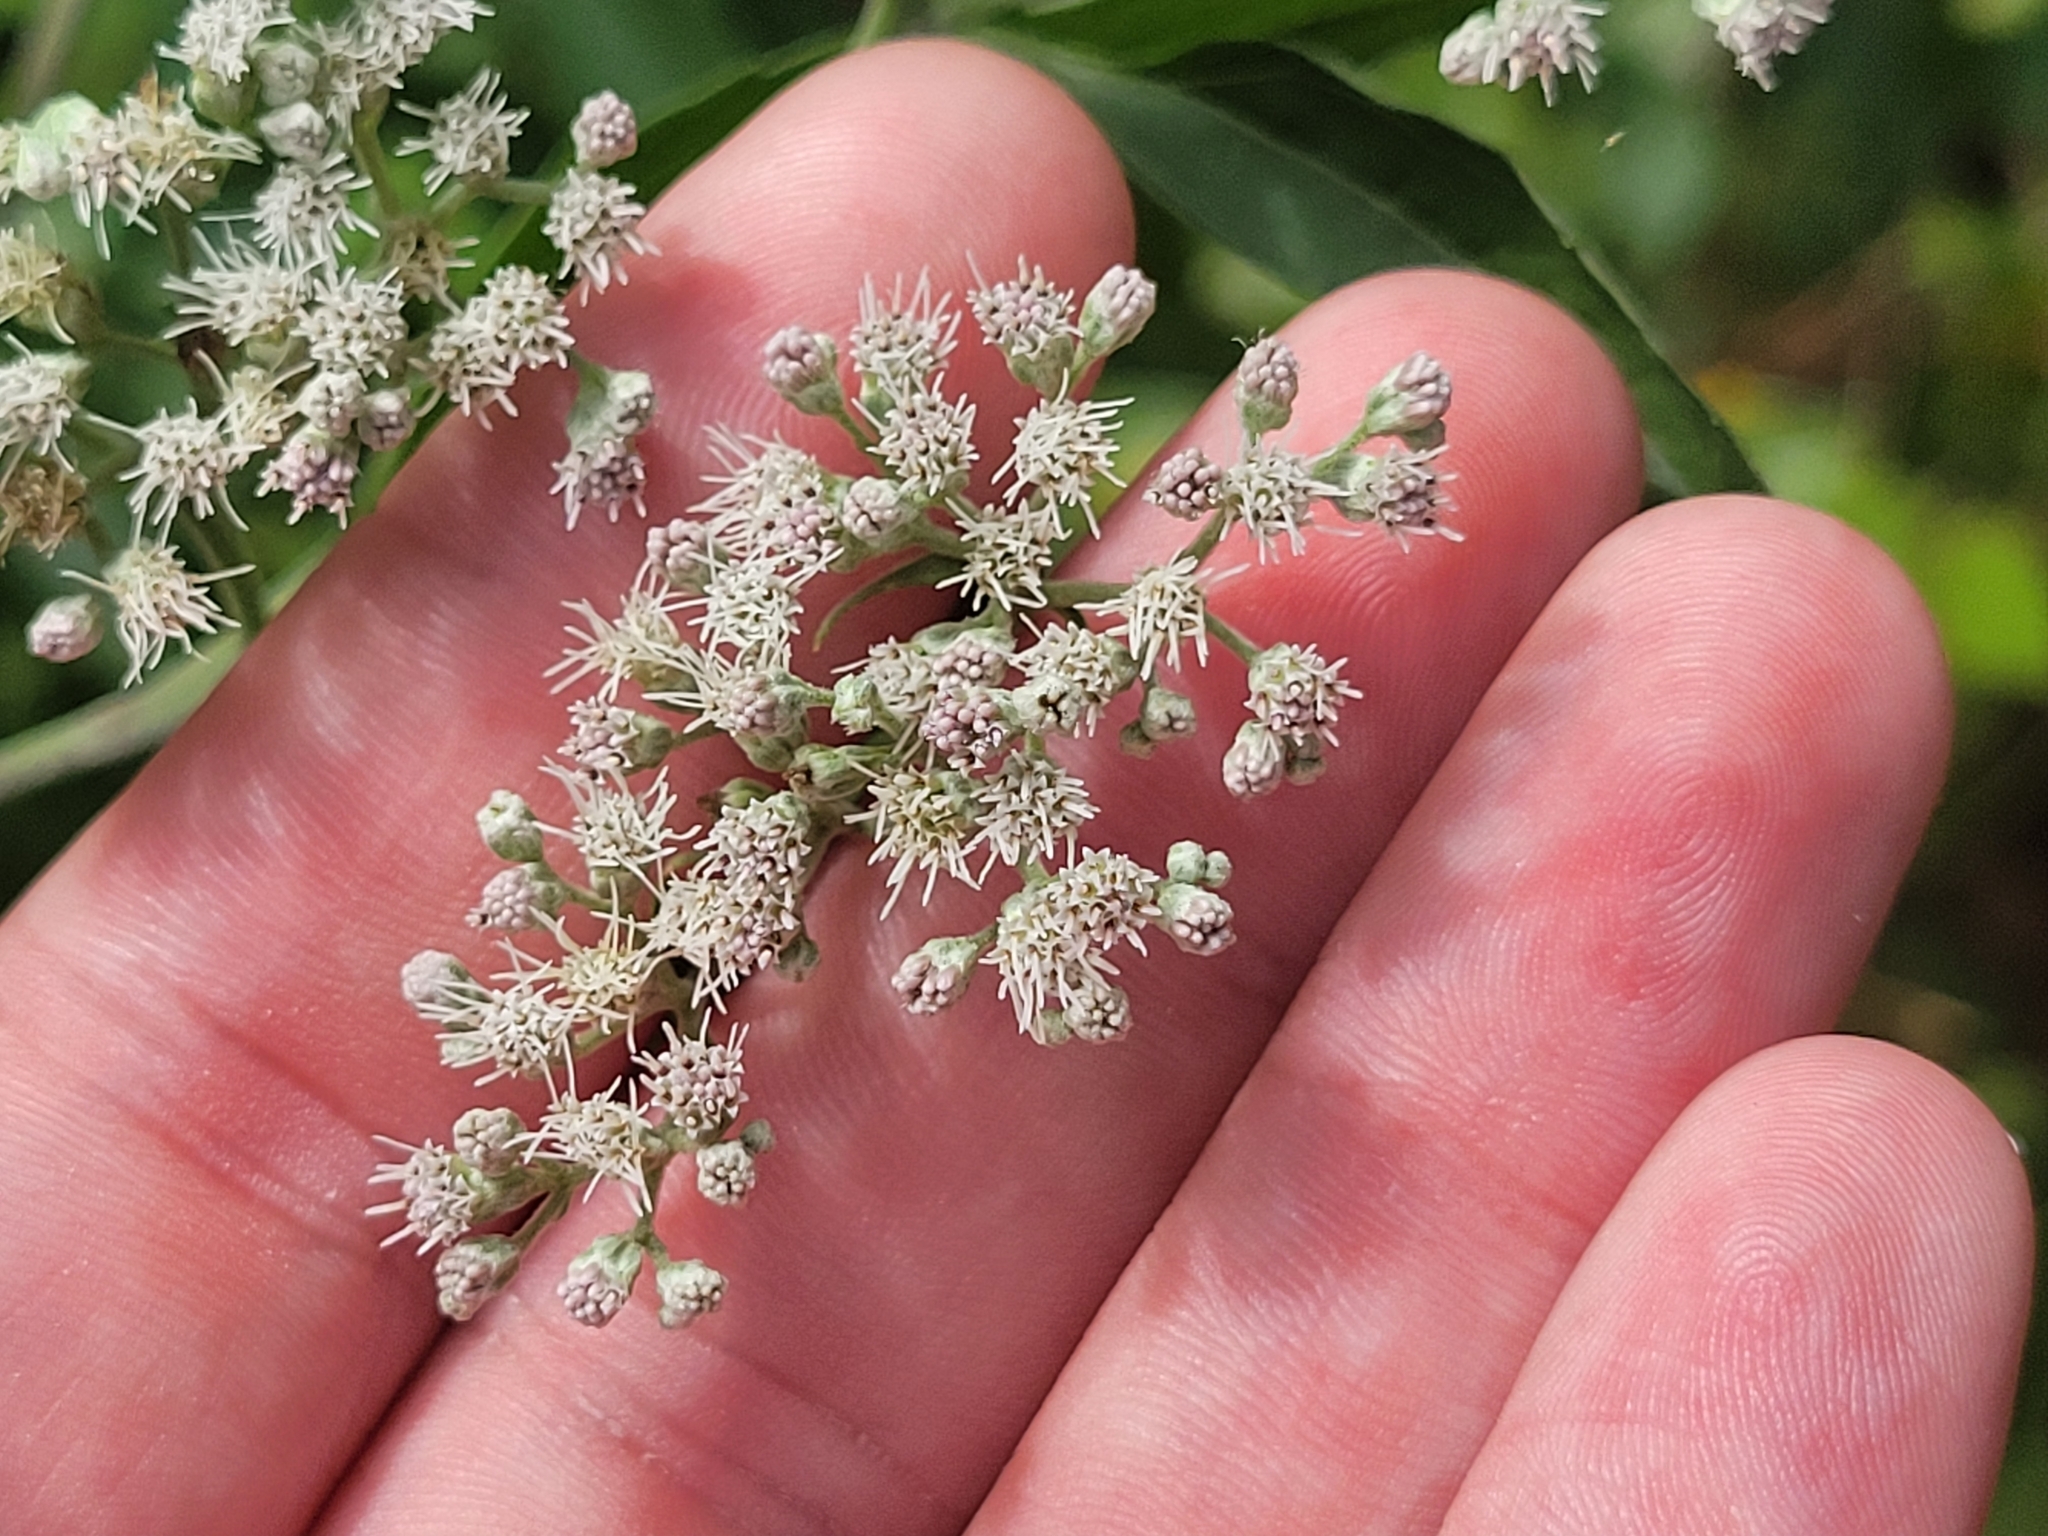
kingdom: Plantae
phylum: Tracheophyta
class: Magnoliopsida
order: Asterales
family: Asteraceae
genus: Eupatorium
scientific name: Eupatorium serotinum
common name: Late boneset
